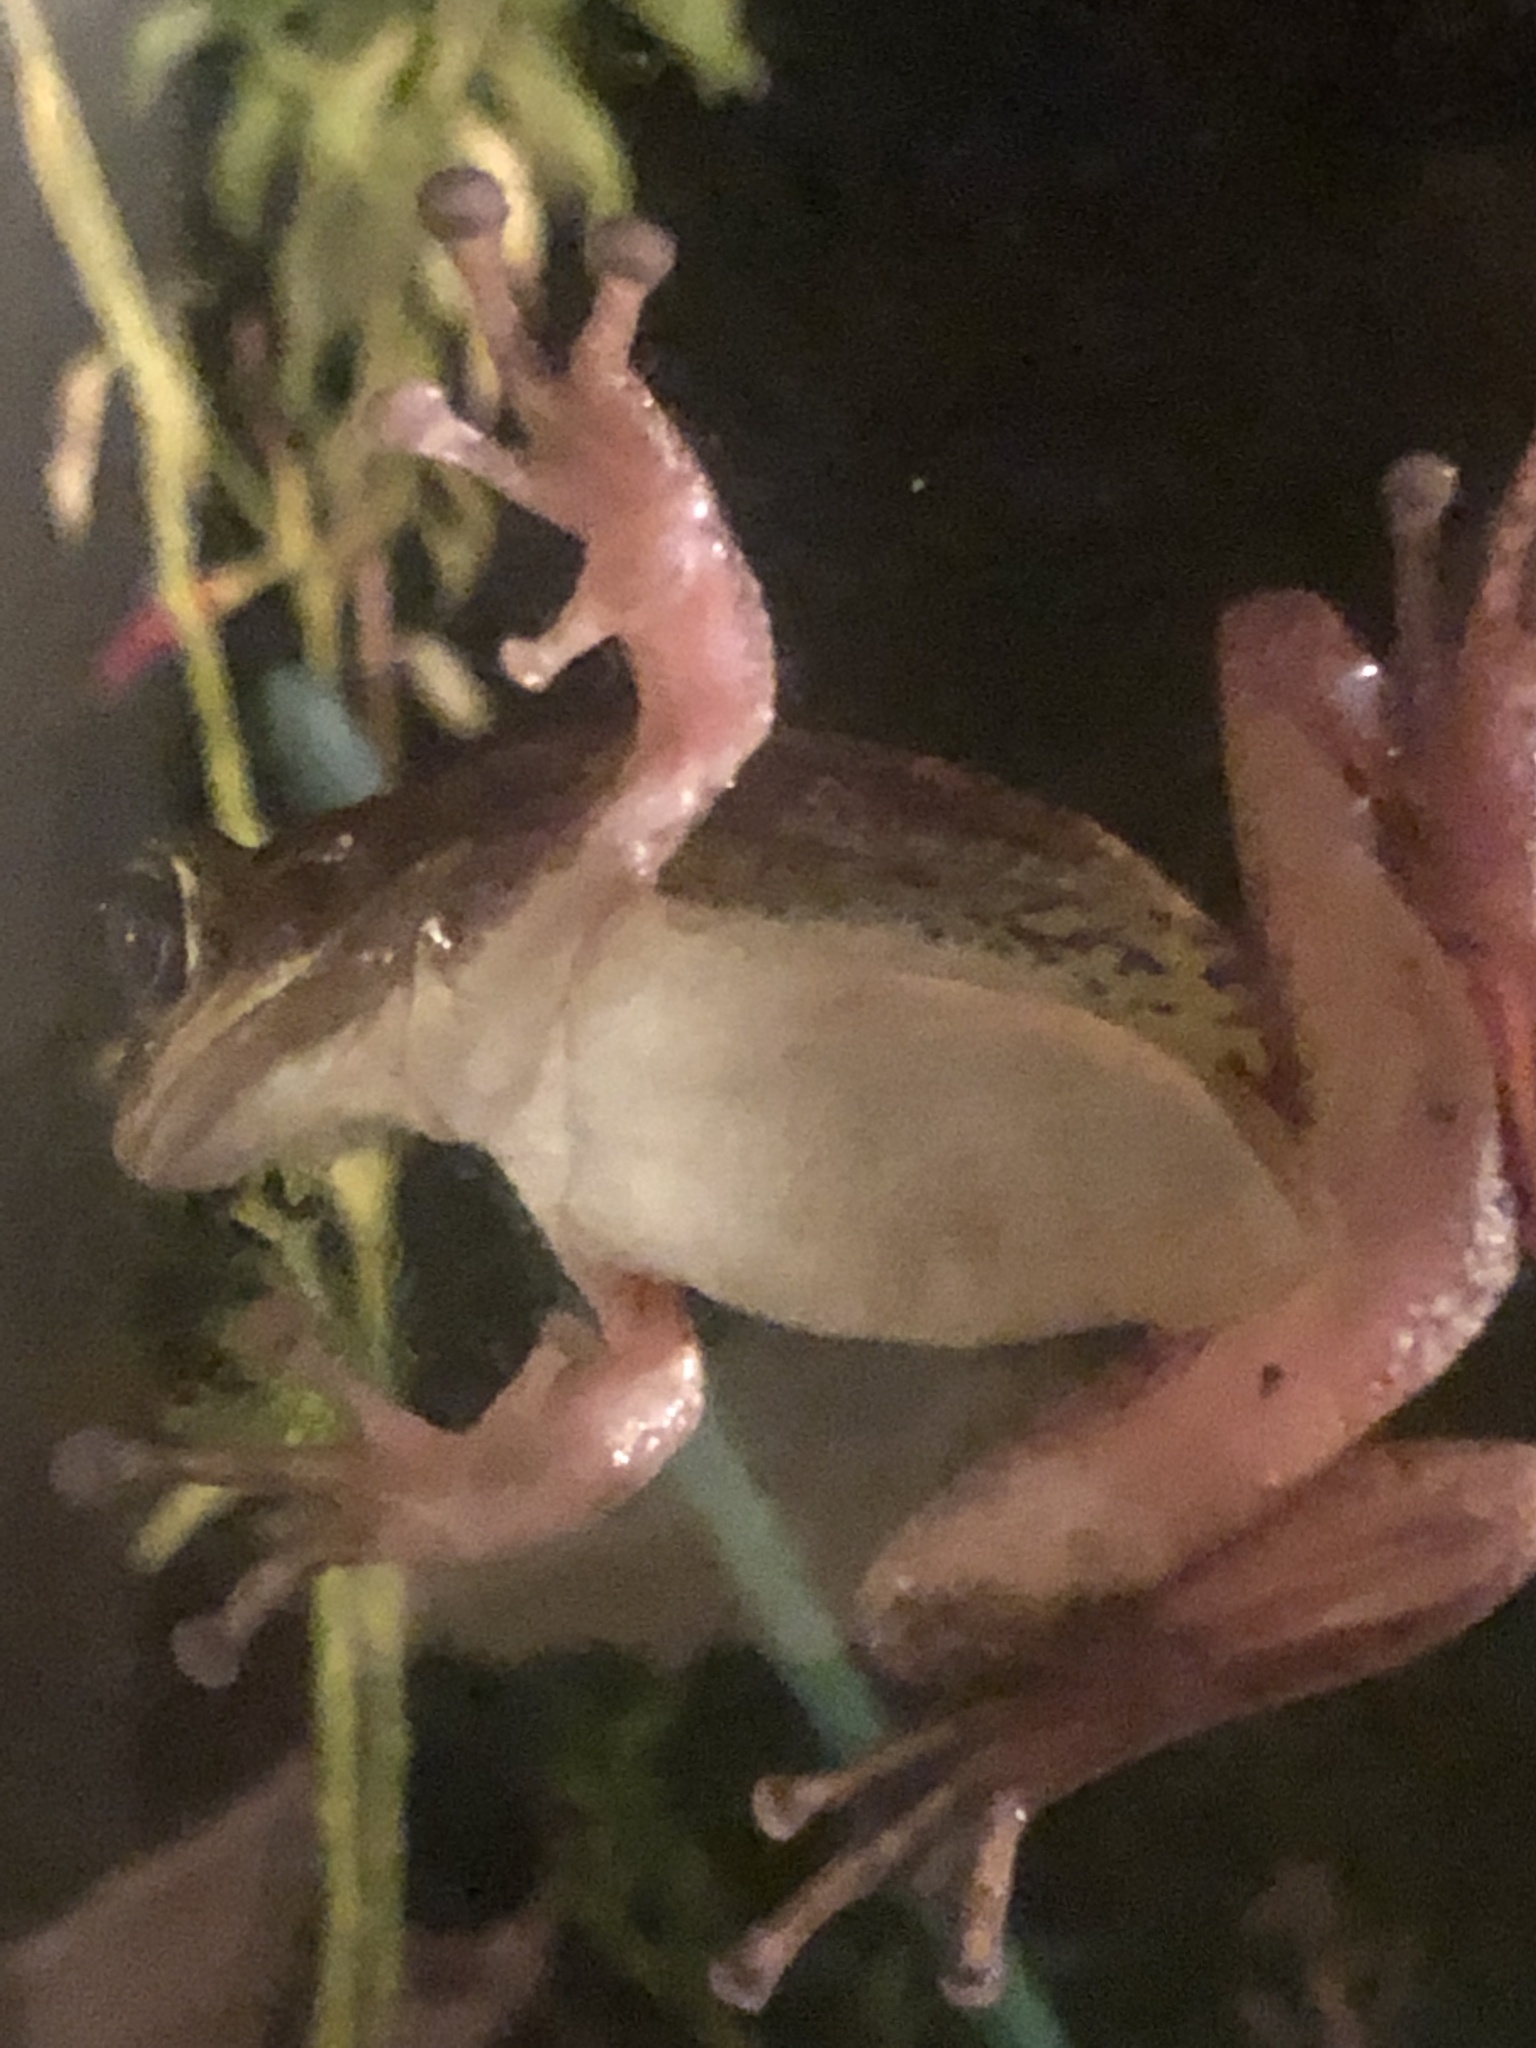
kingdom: Animalia
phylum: Chordata
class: Amphibia
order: Anura
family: Hylidae
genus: Osteopilus
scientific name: Osteopilus septentrionalis
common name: Cuban treefrog
